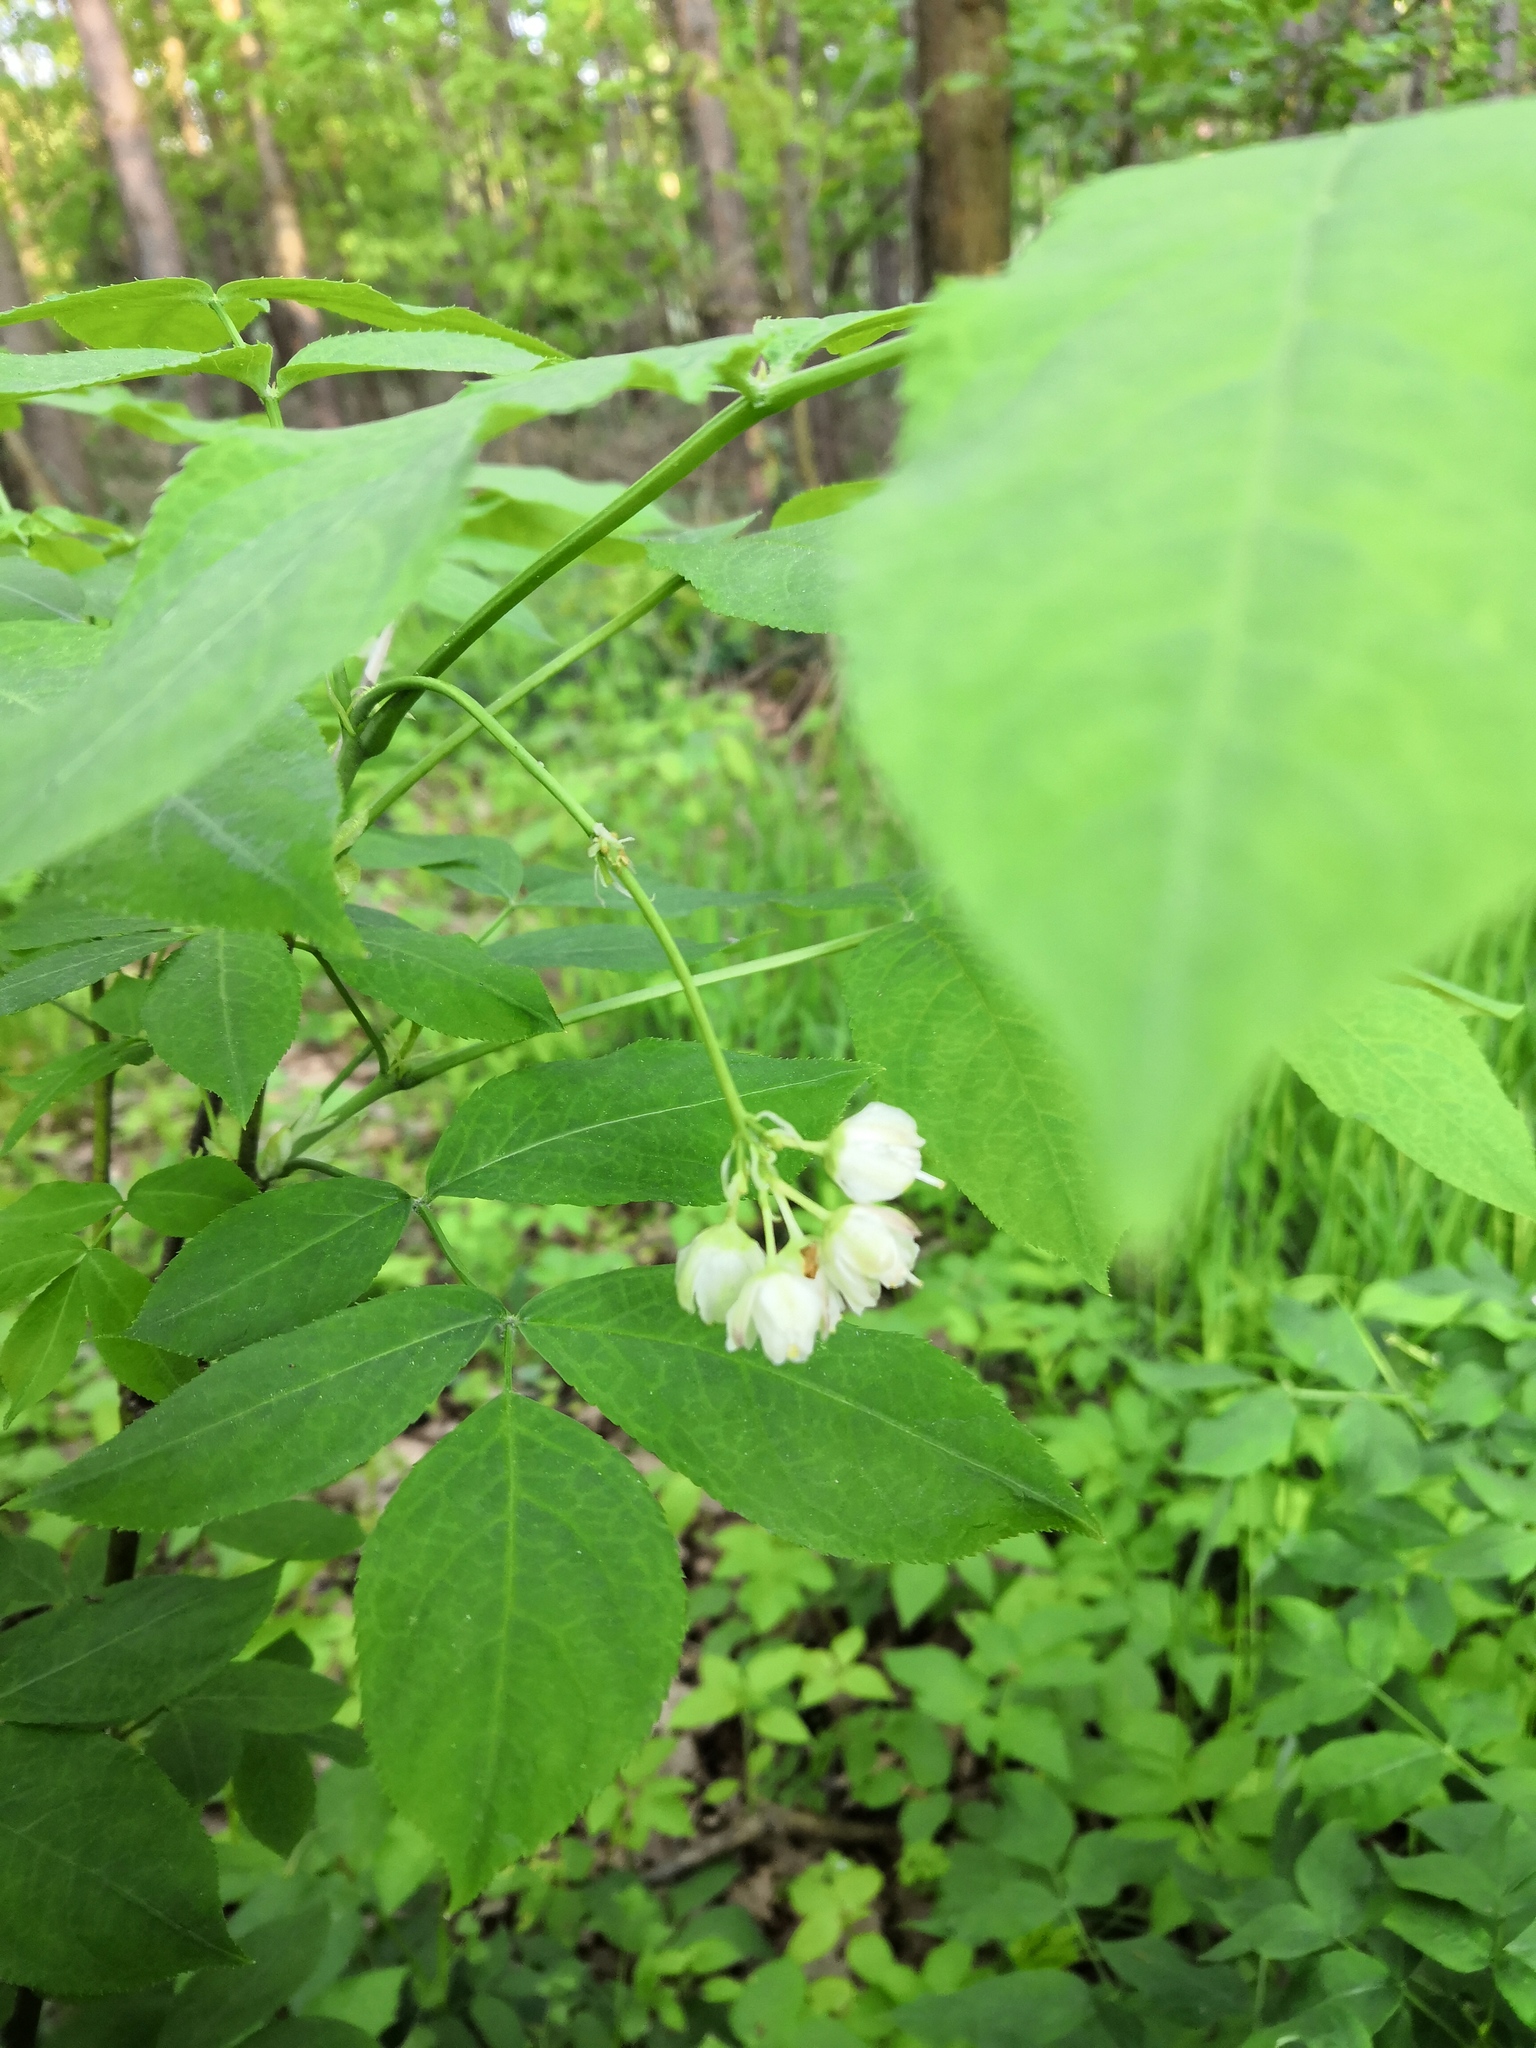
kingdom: Plantae
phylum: Tracheophyta
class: Magnoliopsida
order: Crossosomatales
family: Staphyleaceae
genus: Staphylea
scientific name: Staphylea pinnata
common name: Bladdernut
